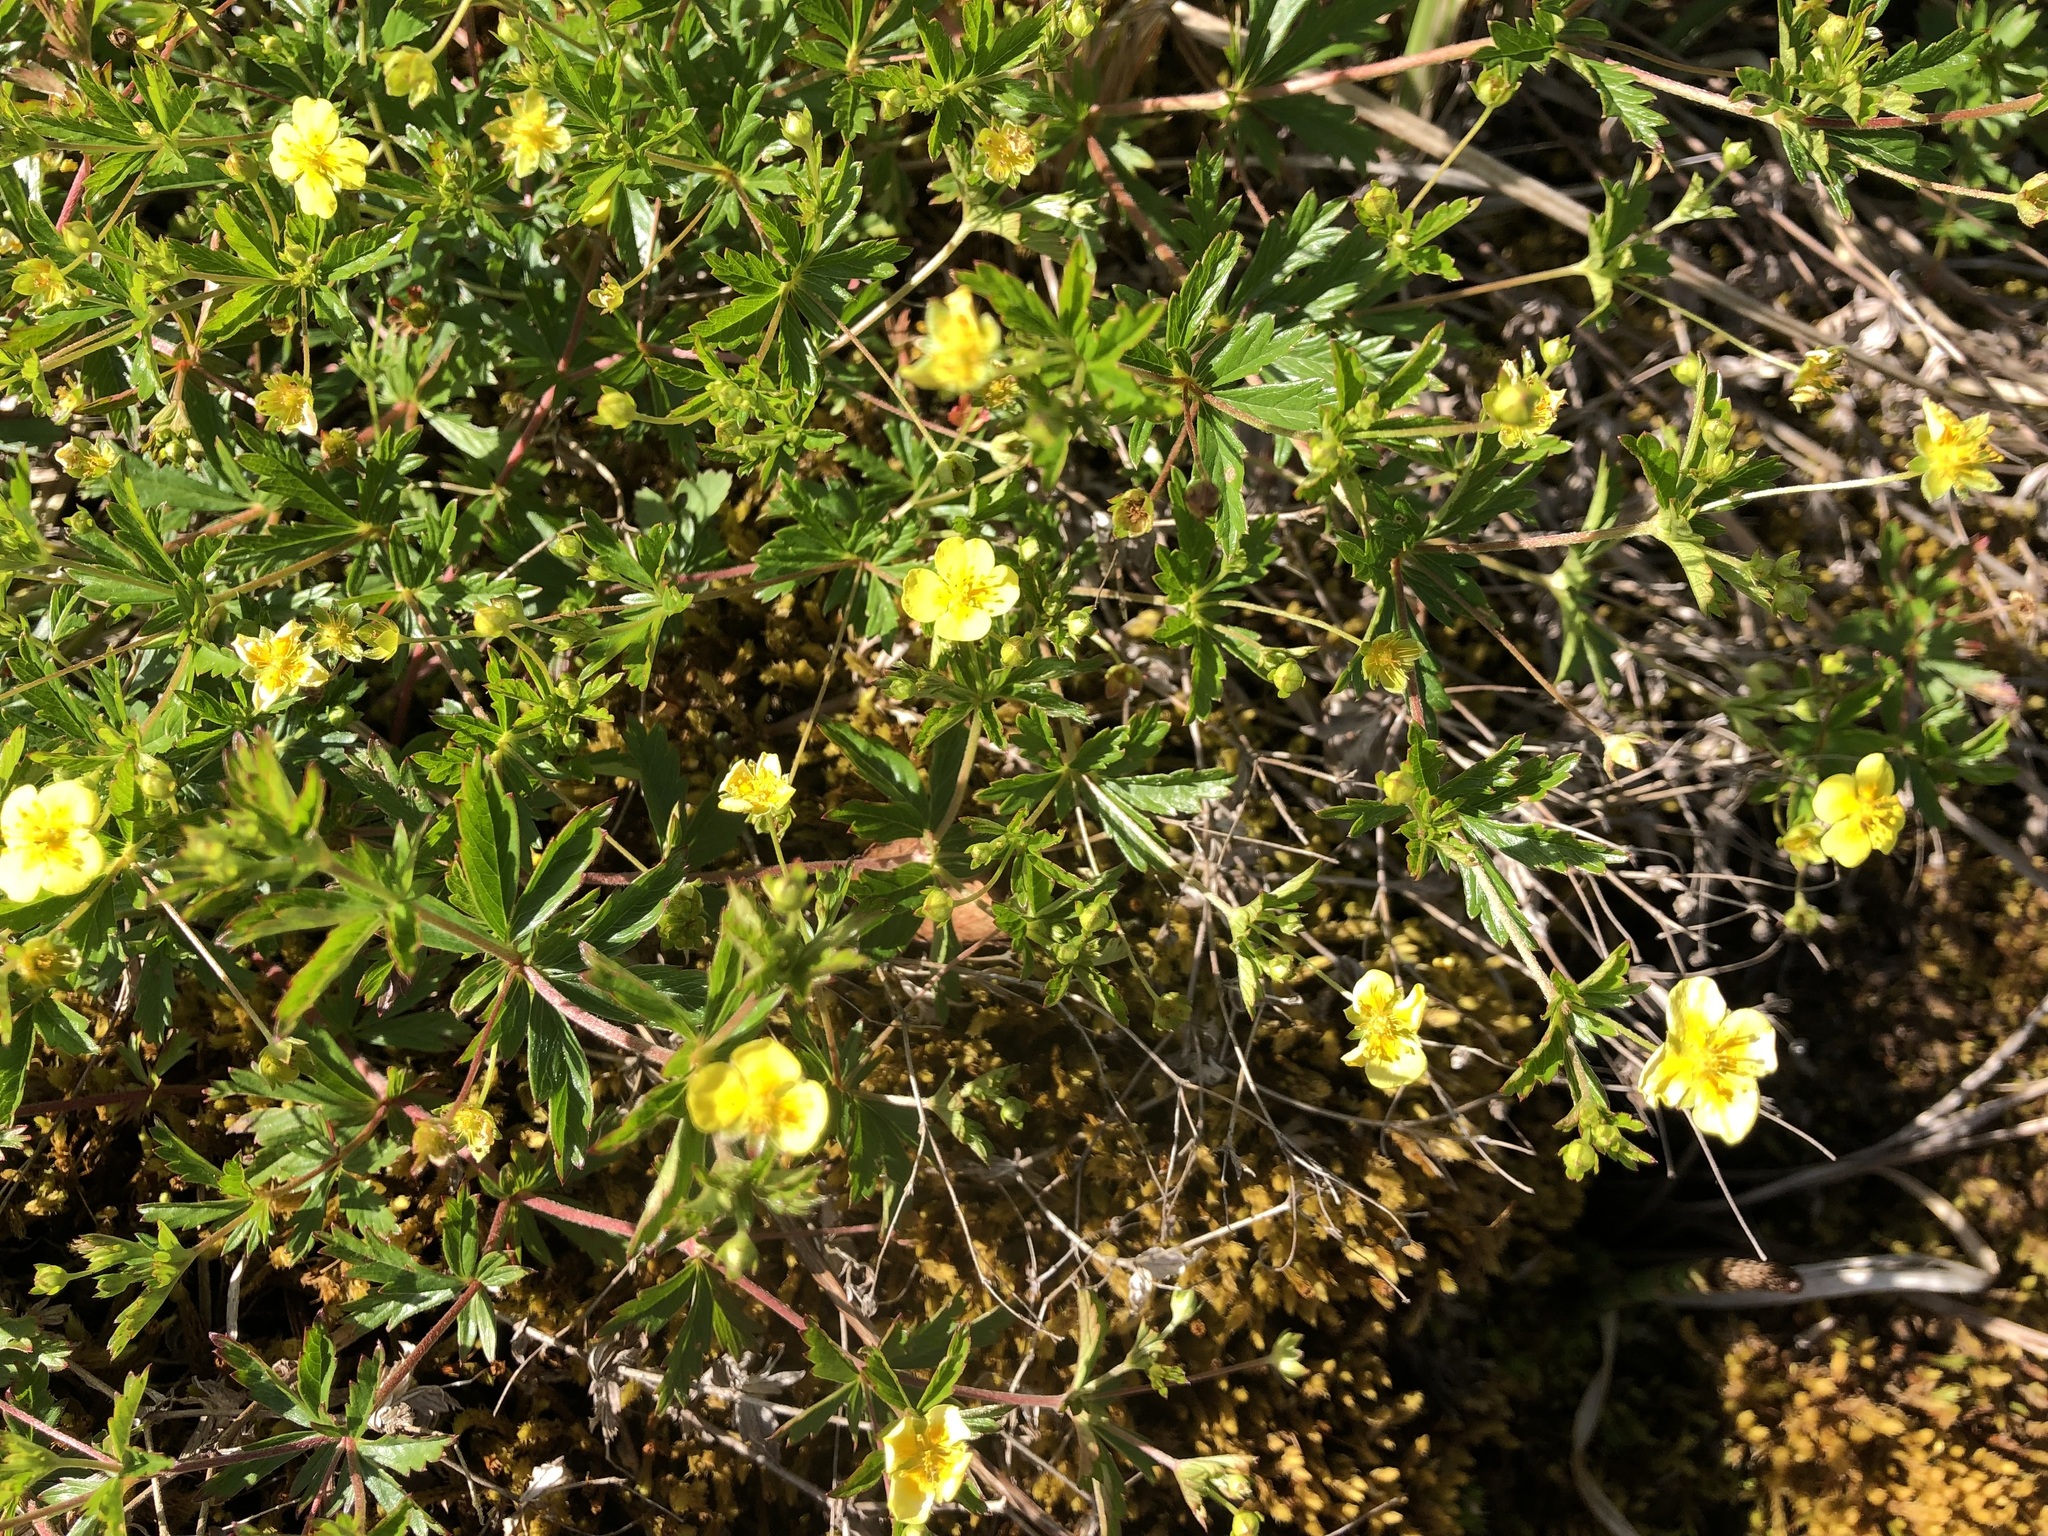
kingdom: Plantae
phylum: Tracheophyta
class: Magnoliopsida
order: Rosales
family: Rosaceae
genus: Potentilla
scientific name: Potentilla erecta
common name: Tormentil
